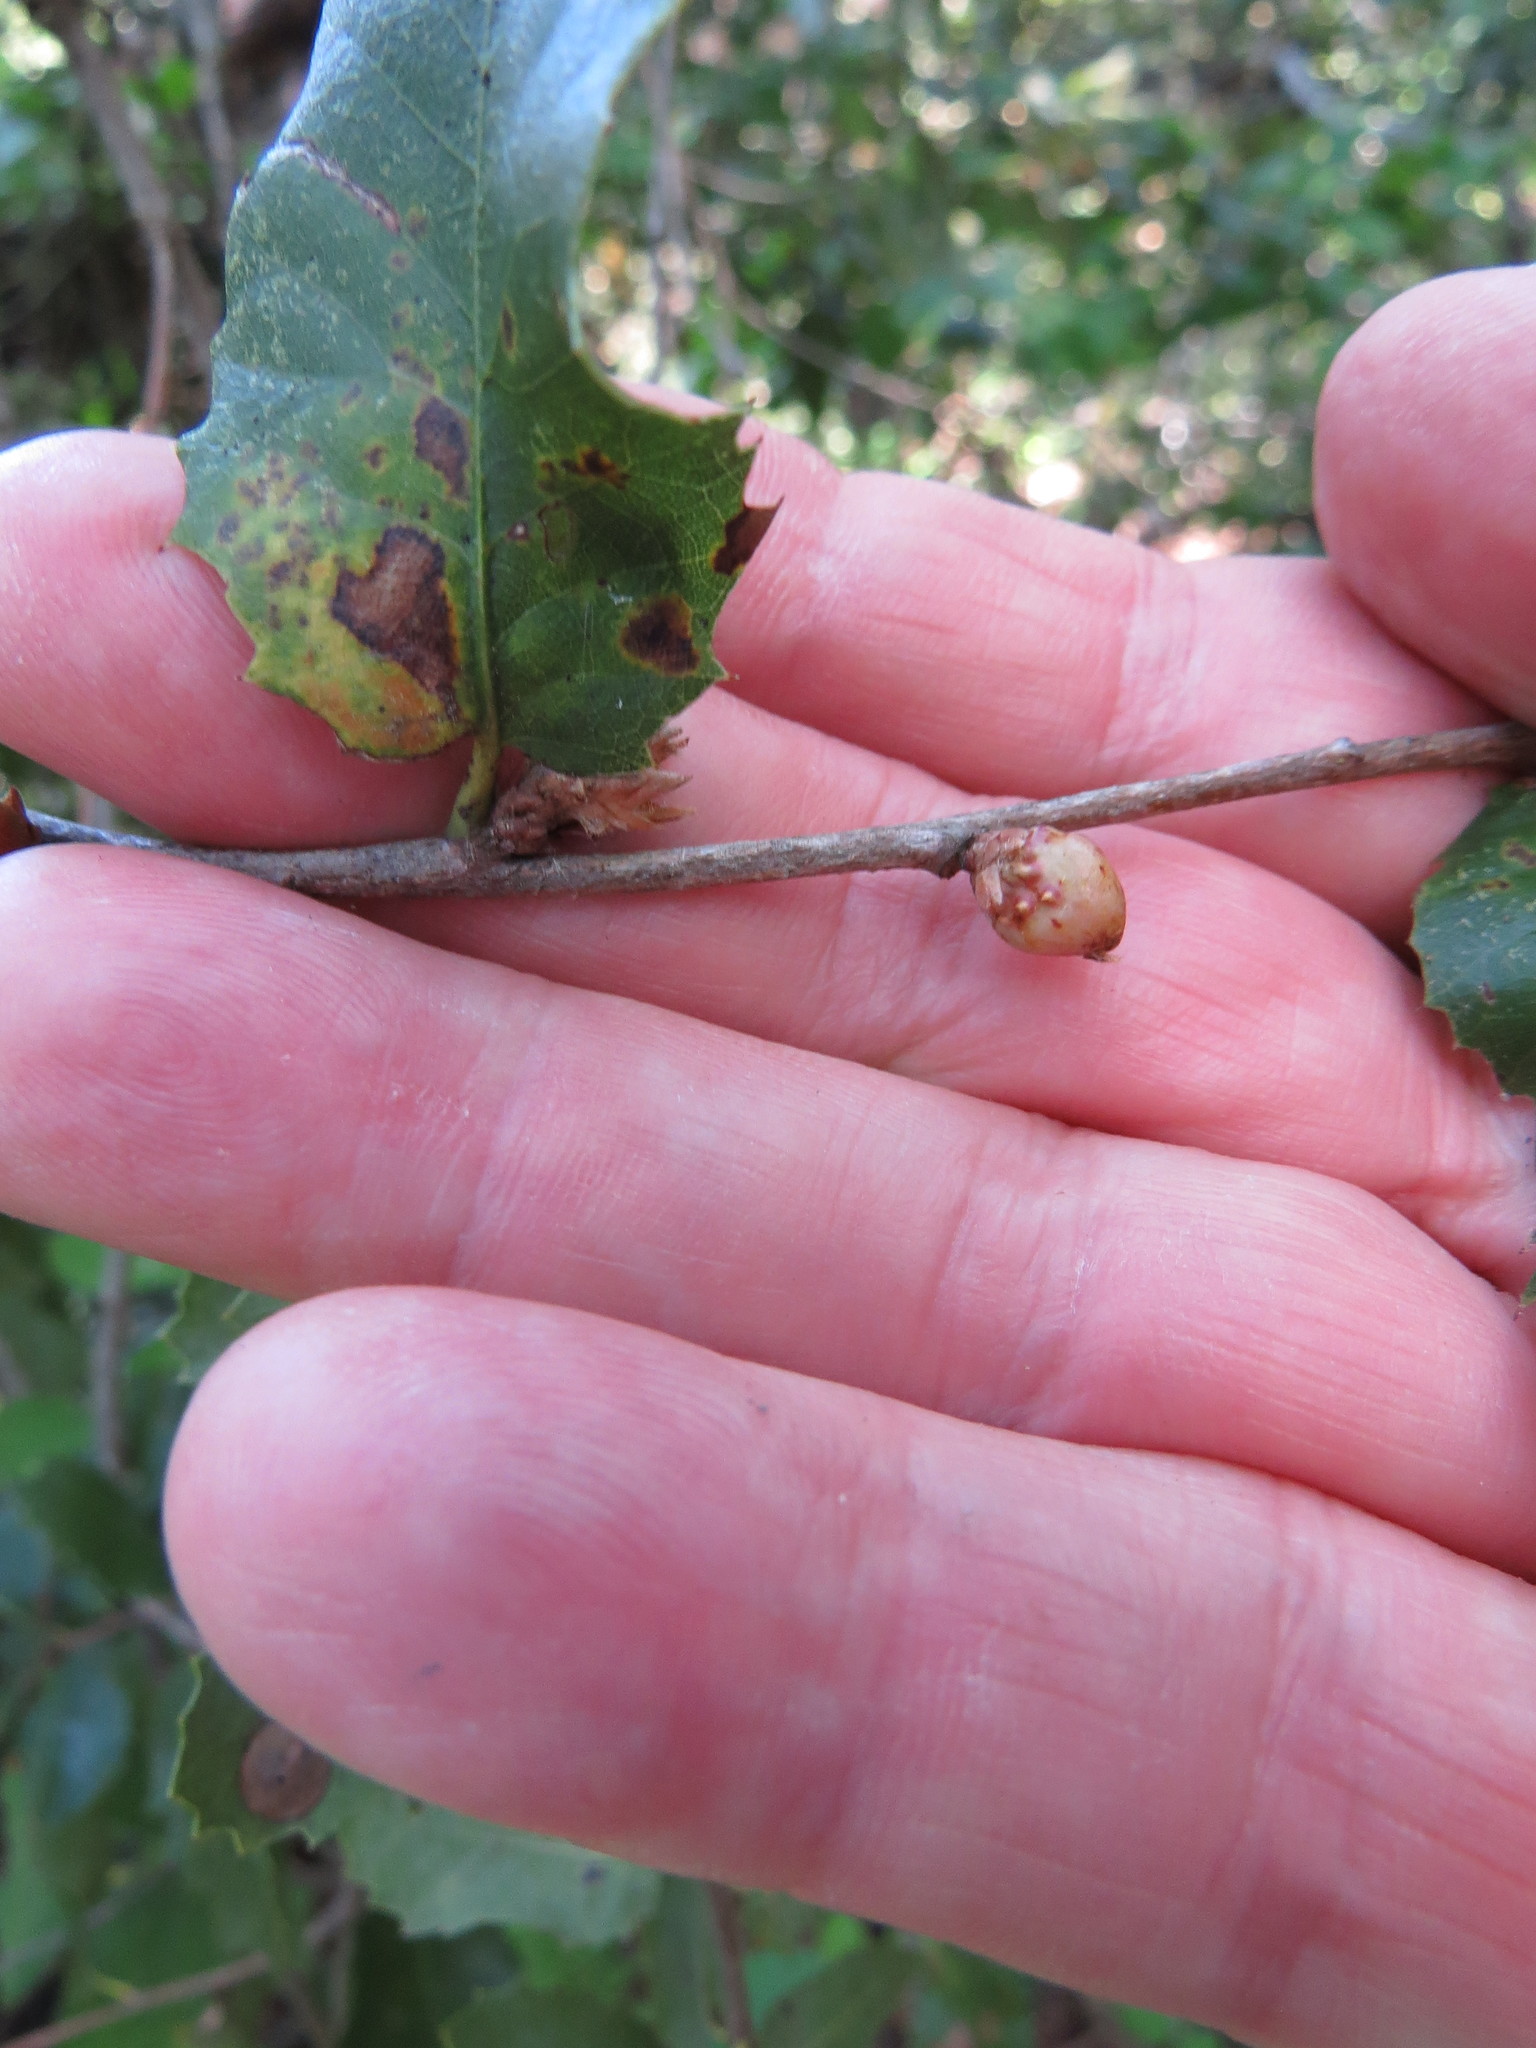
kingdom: Animalia
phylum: Arthropoda
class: Insecta
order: Hymenoptera
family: Cynipidae
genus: Andricus
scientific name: Andricus
